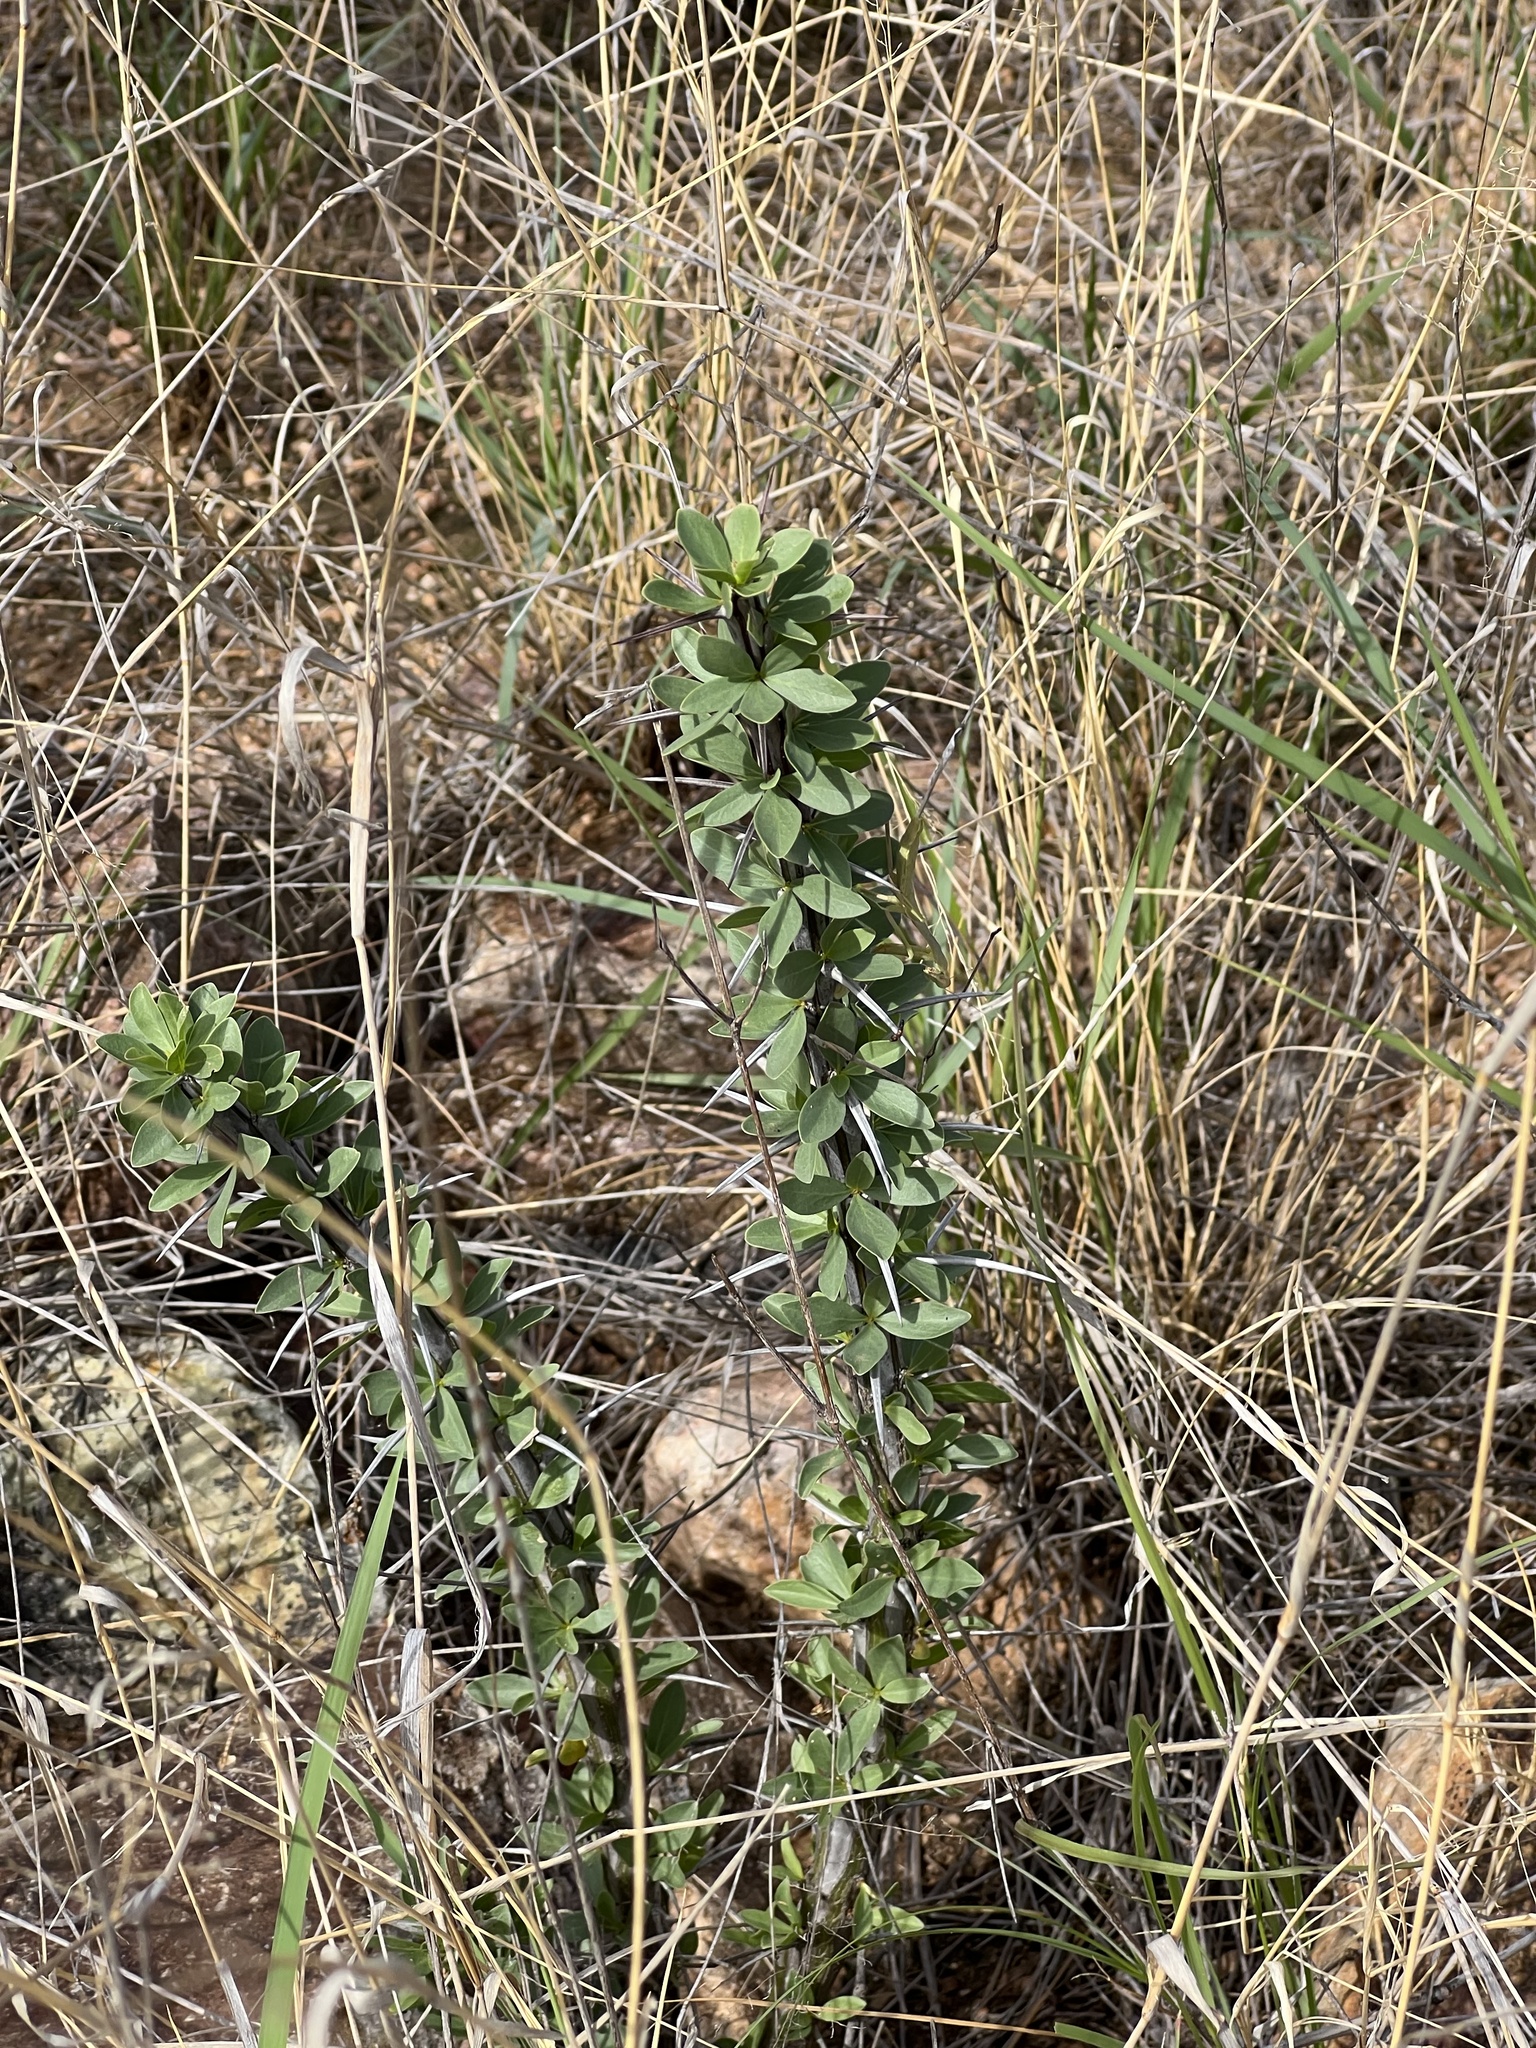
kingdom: Plantae
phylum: Tracheophyta
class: Magnoliopsida
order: Ericales
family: Fouquieriaceae
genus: Fouquieria
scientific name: Fouquieria splendens
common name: Vine-cactus
